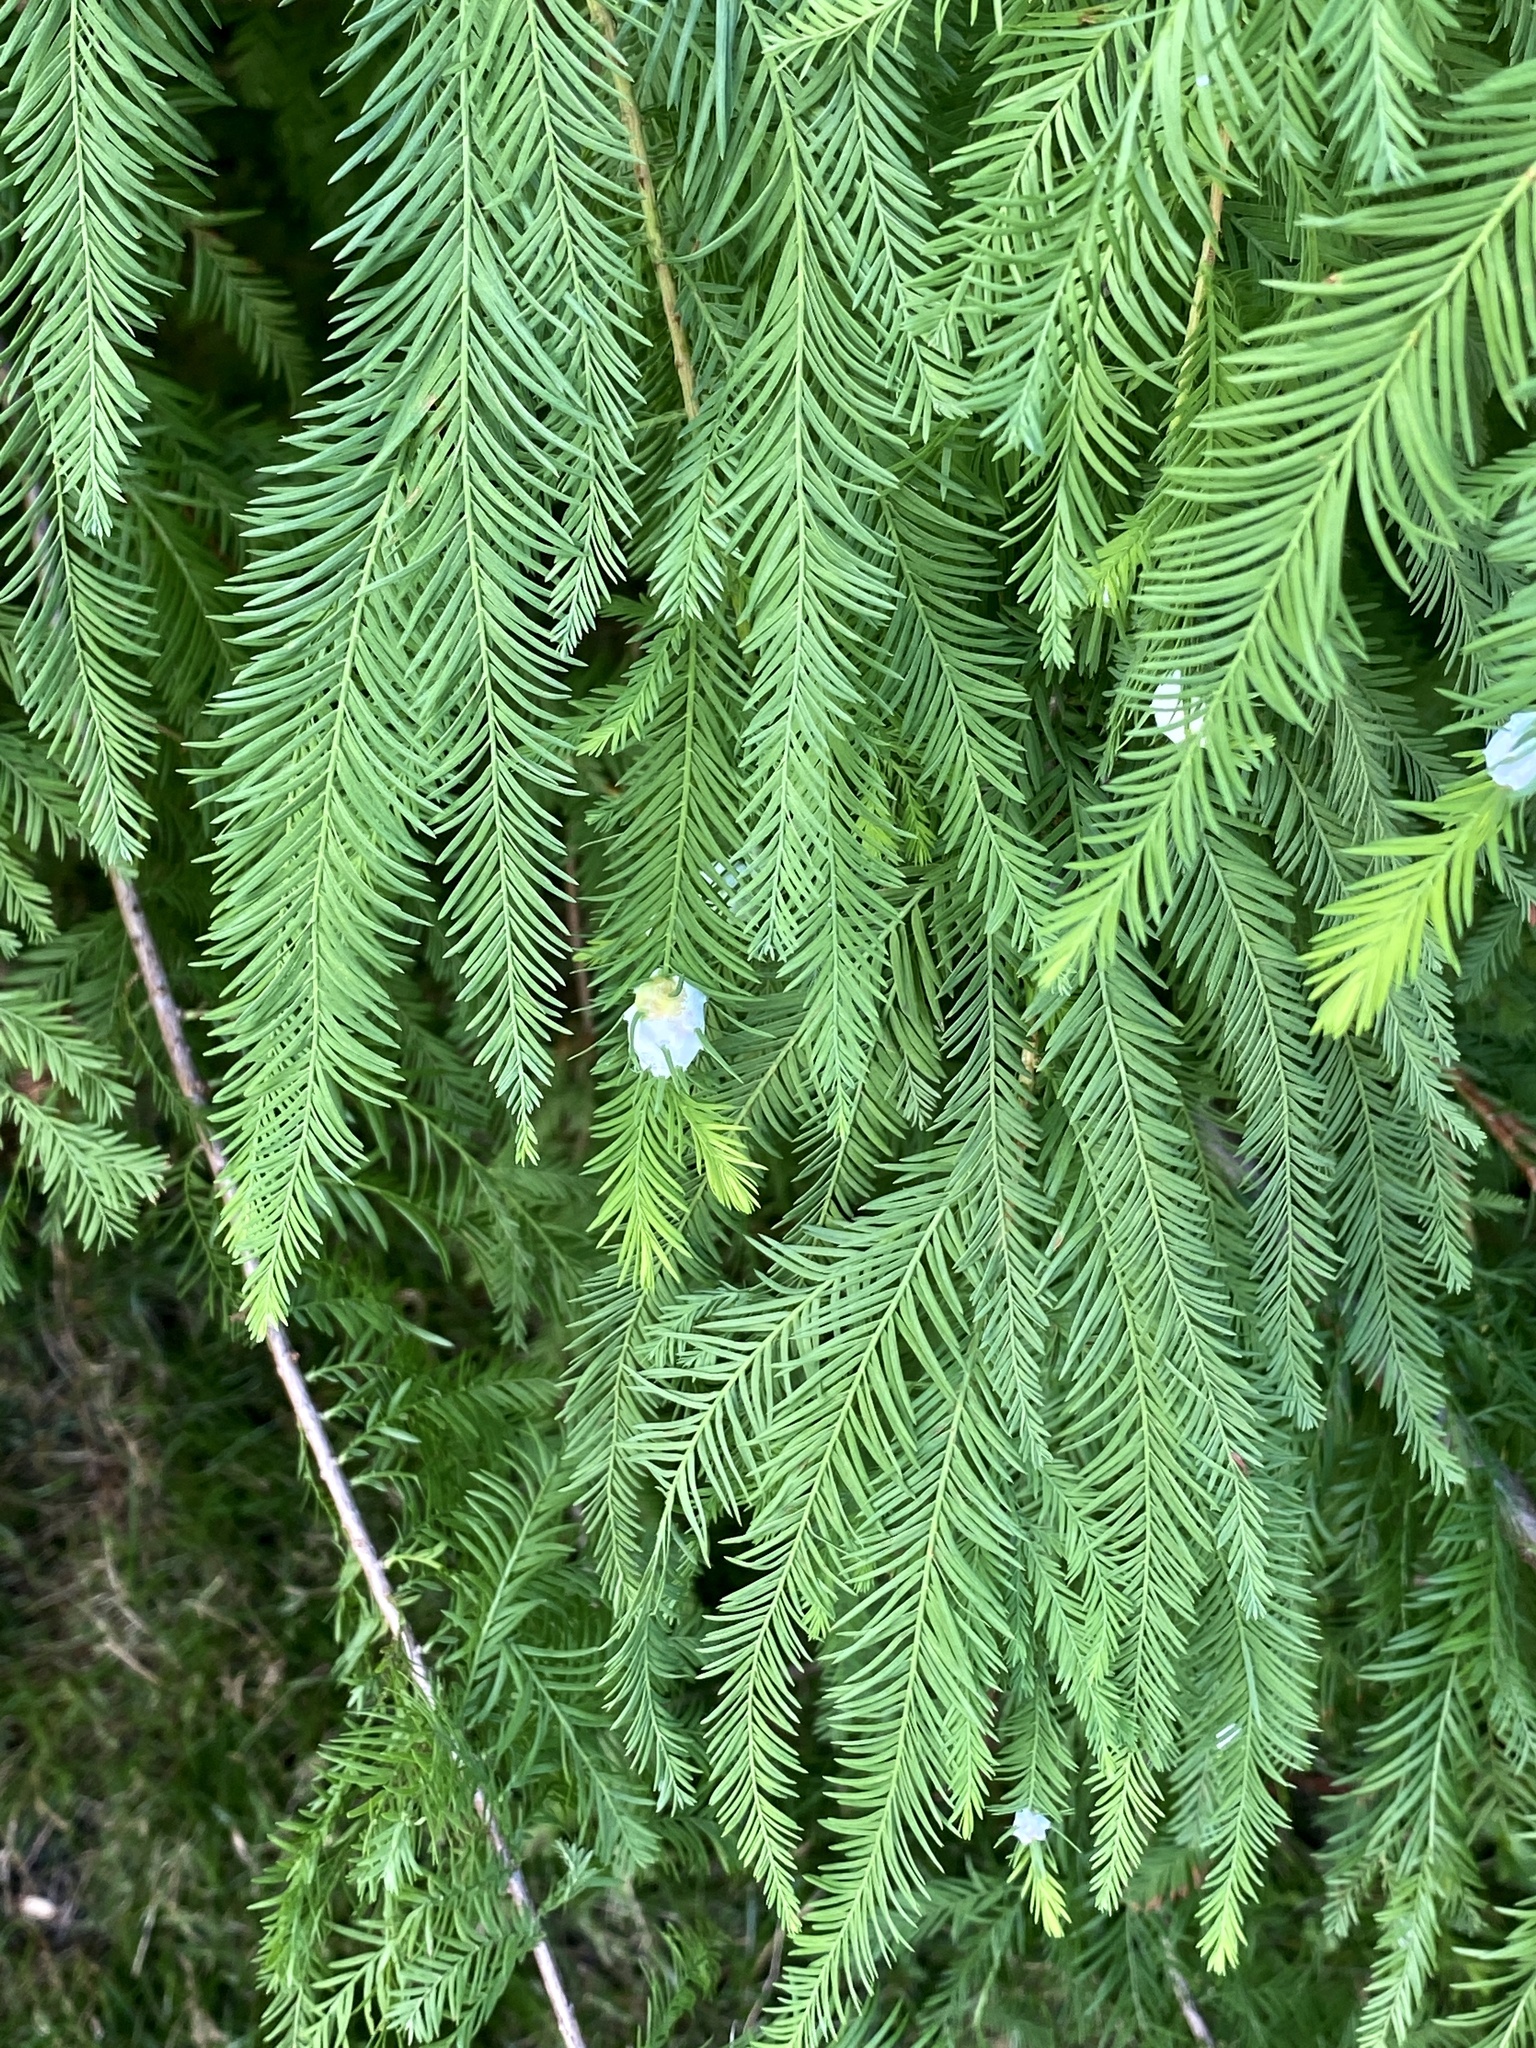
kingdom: Animalia
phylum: Arthropoda
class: Insecta
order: Diptera
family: Cecidomyiidae
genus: Taxodiomyia
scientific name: Taxodiomyia cupressiananassa
